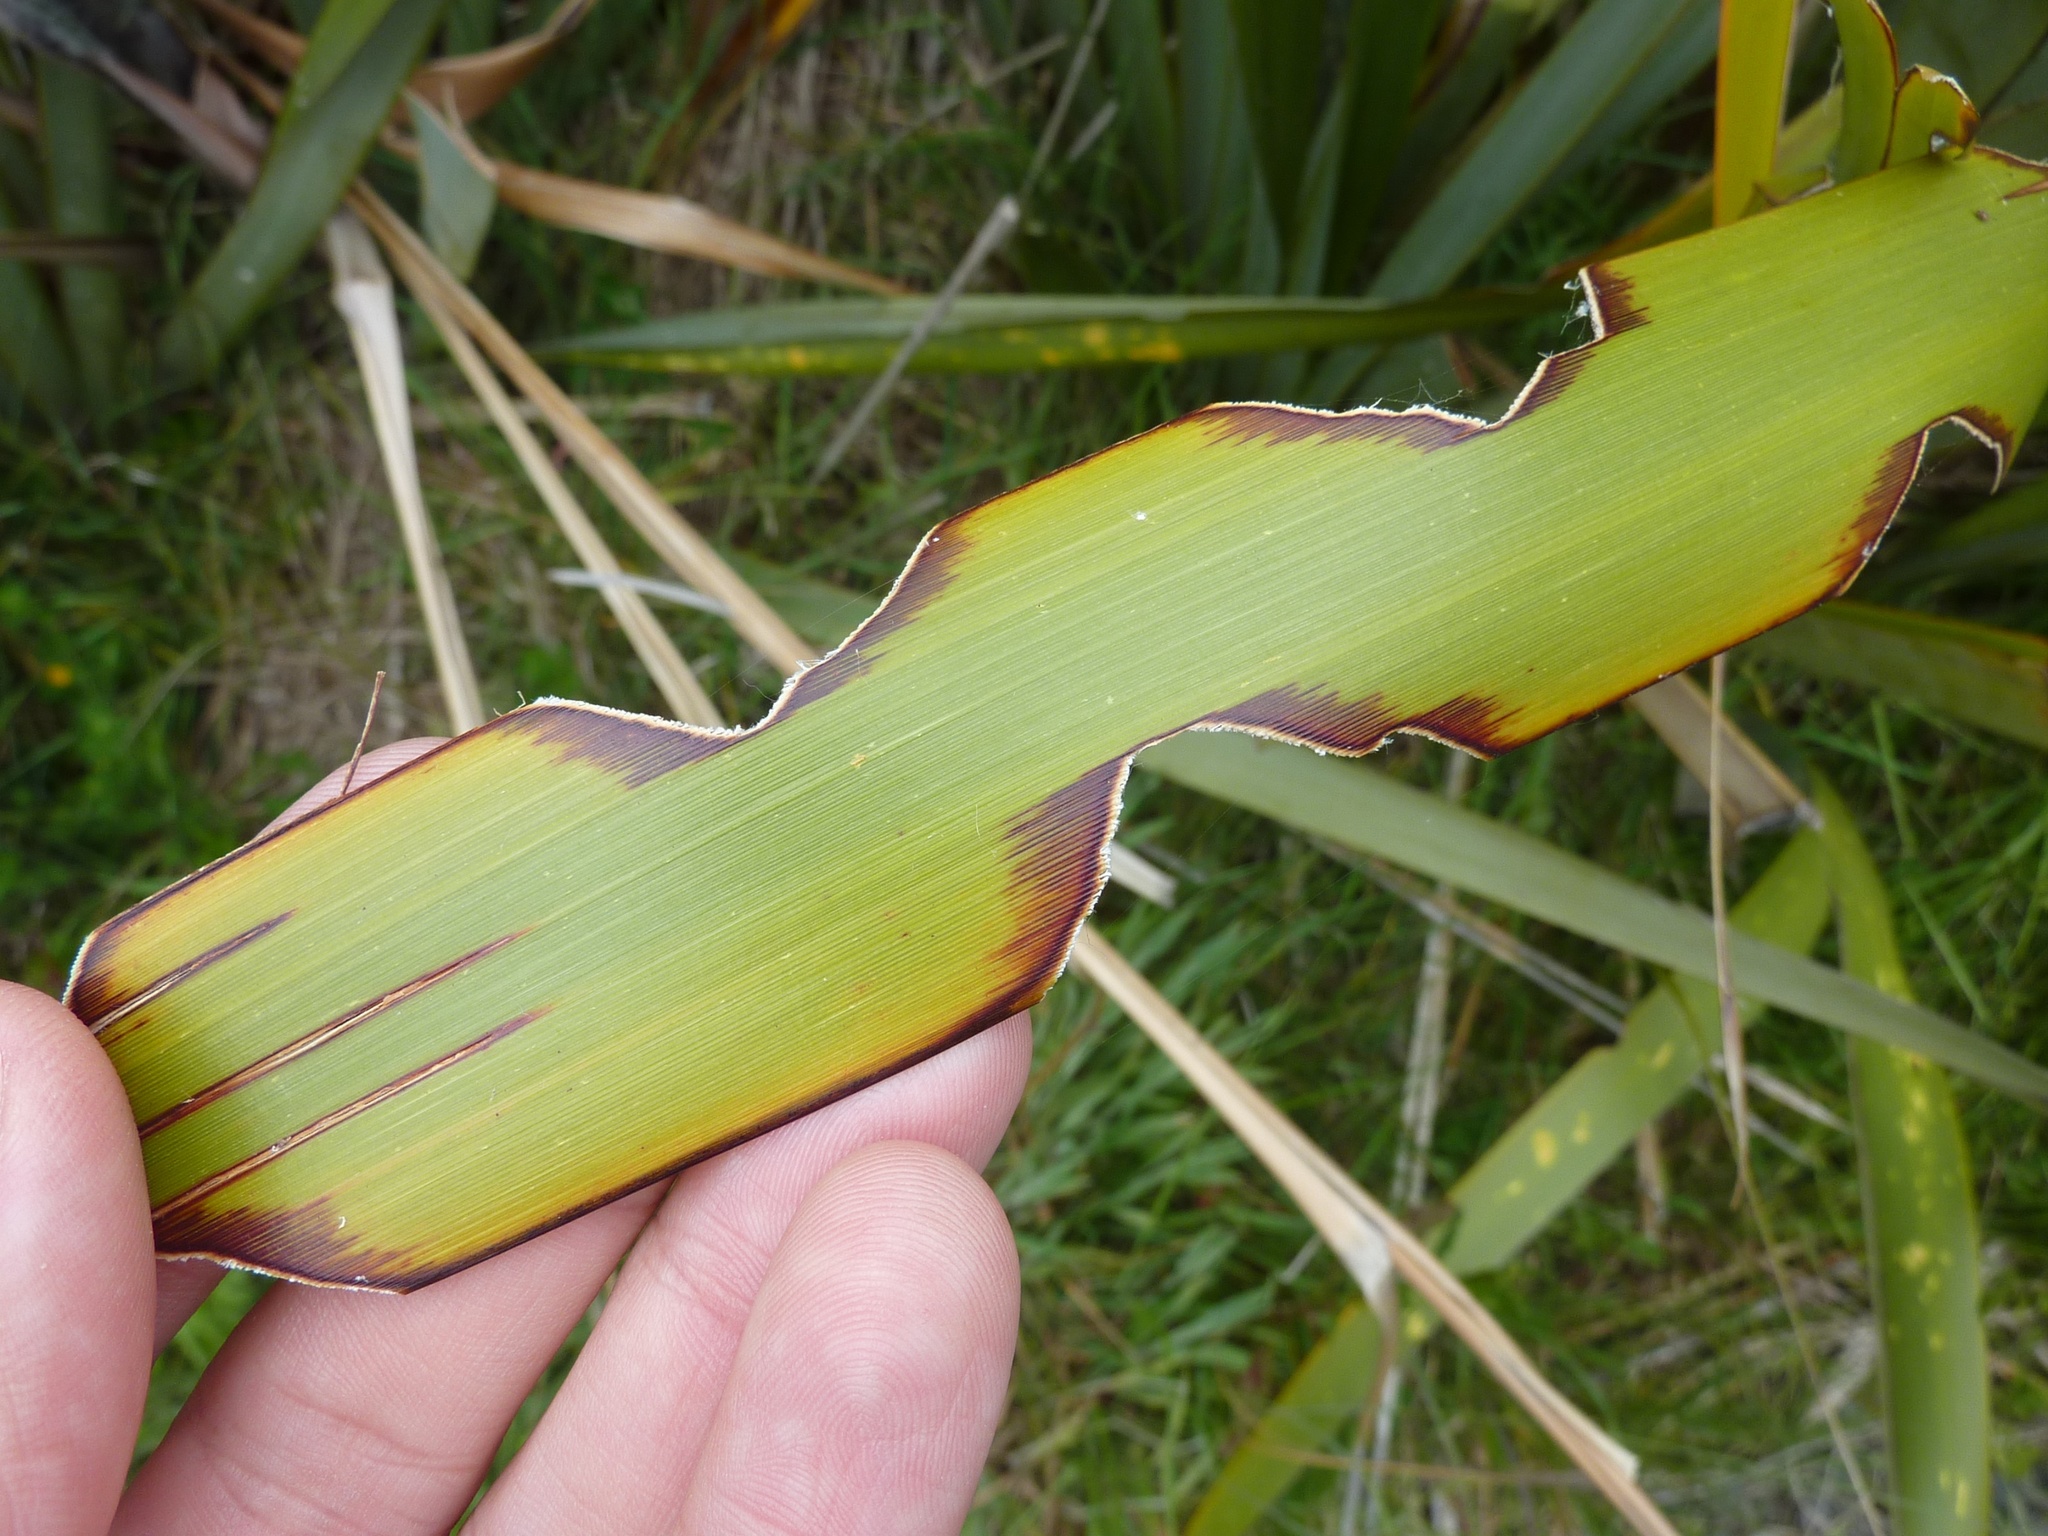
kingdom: Animalia
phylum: Arthropoda
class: Insecta
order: Lepidoptera
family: Noctuidae
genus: Ichneutica
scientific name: Ichneutica
